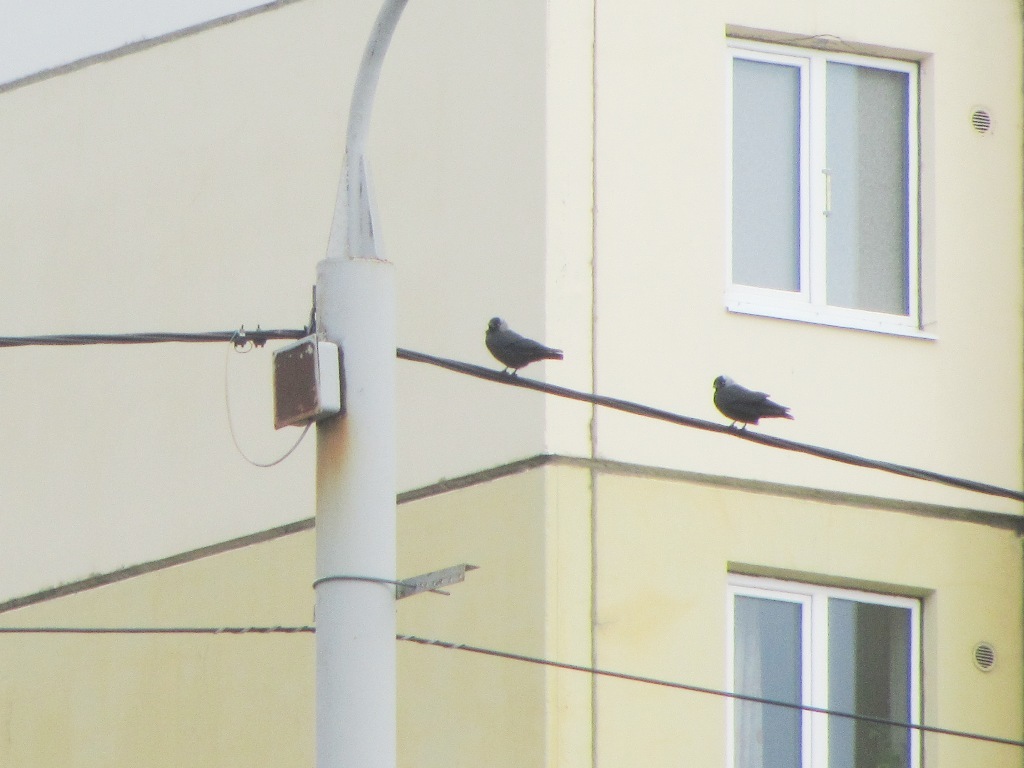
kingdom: Animalia
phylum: Chordata
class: Aves
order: Passeriformes
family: Corvidae
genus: Coloeus
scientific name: Coloeus monedula
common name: Western jackdaw
